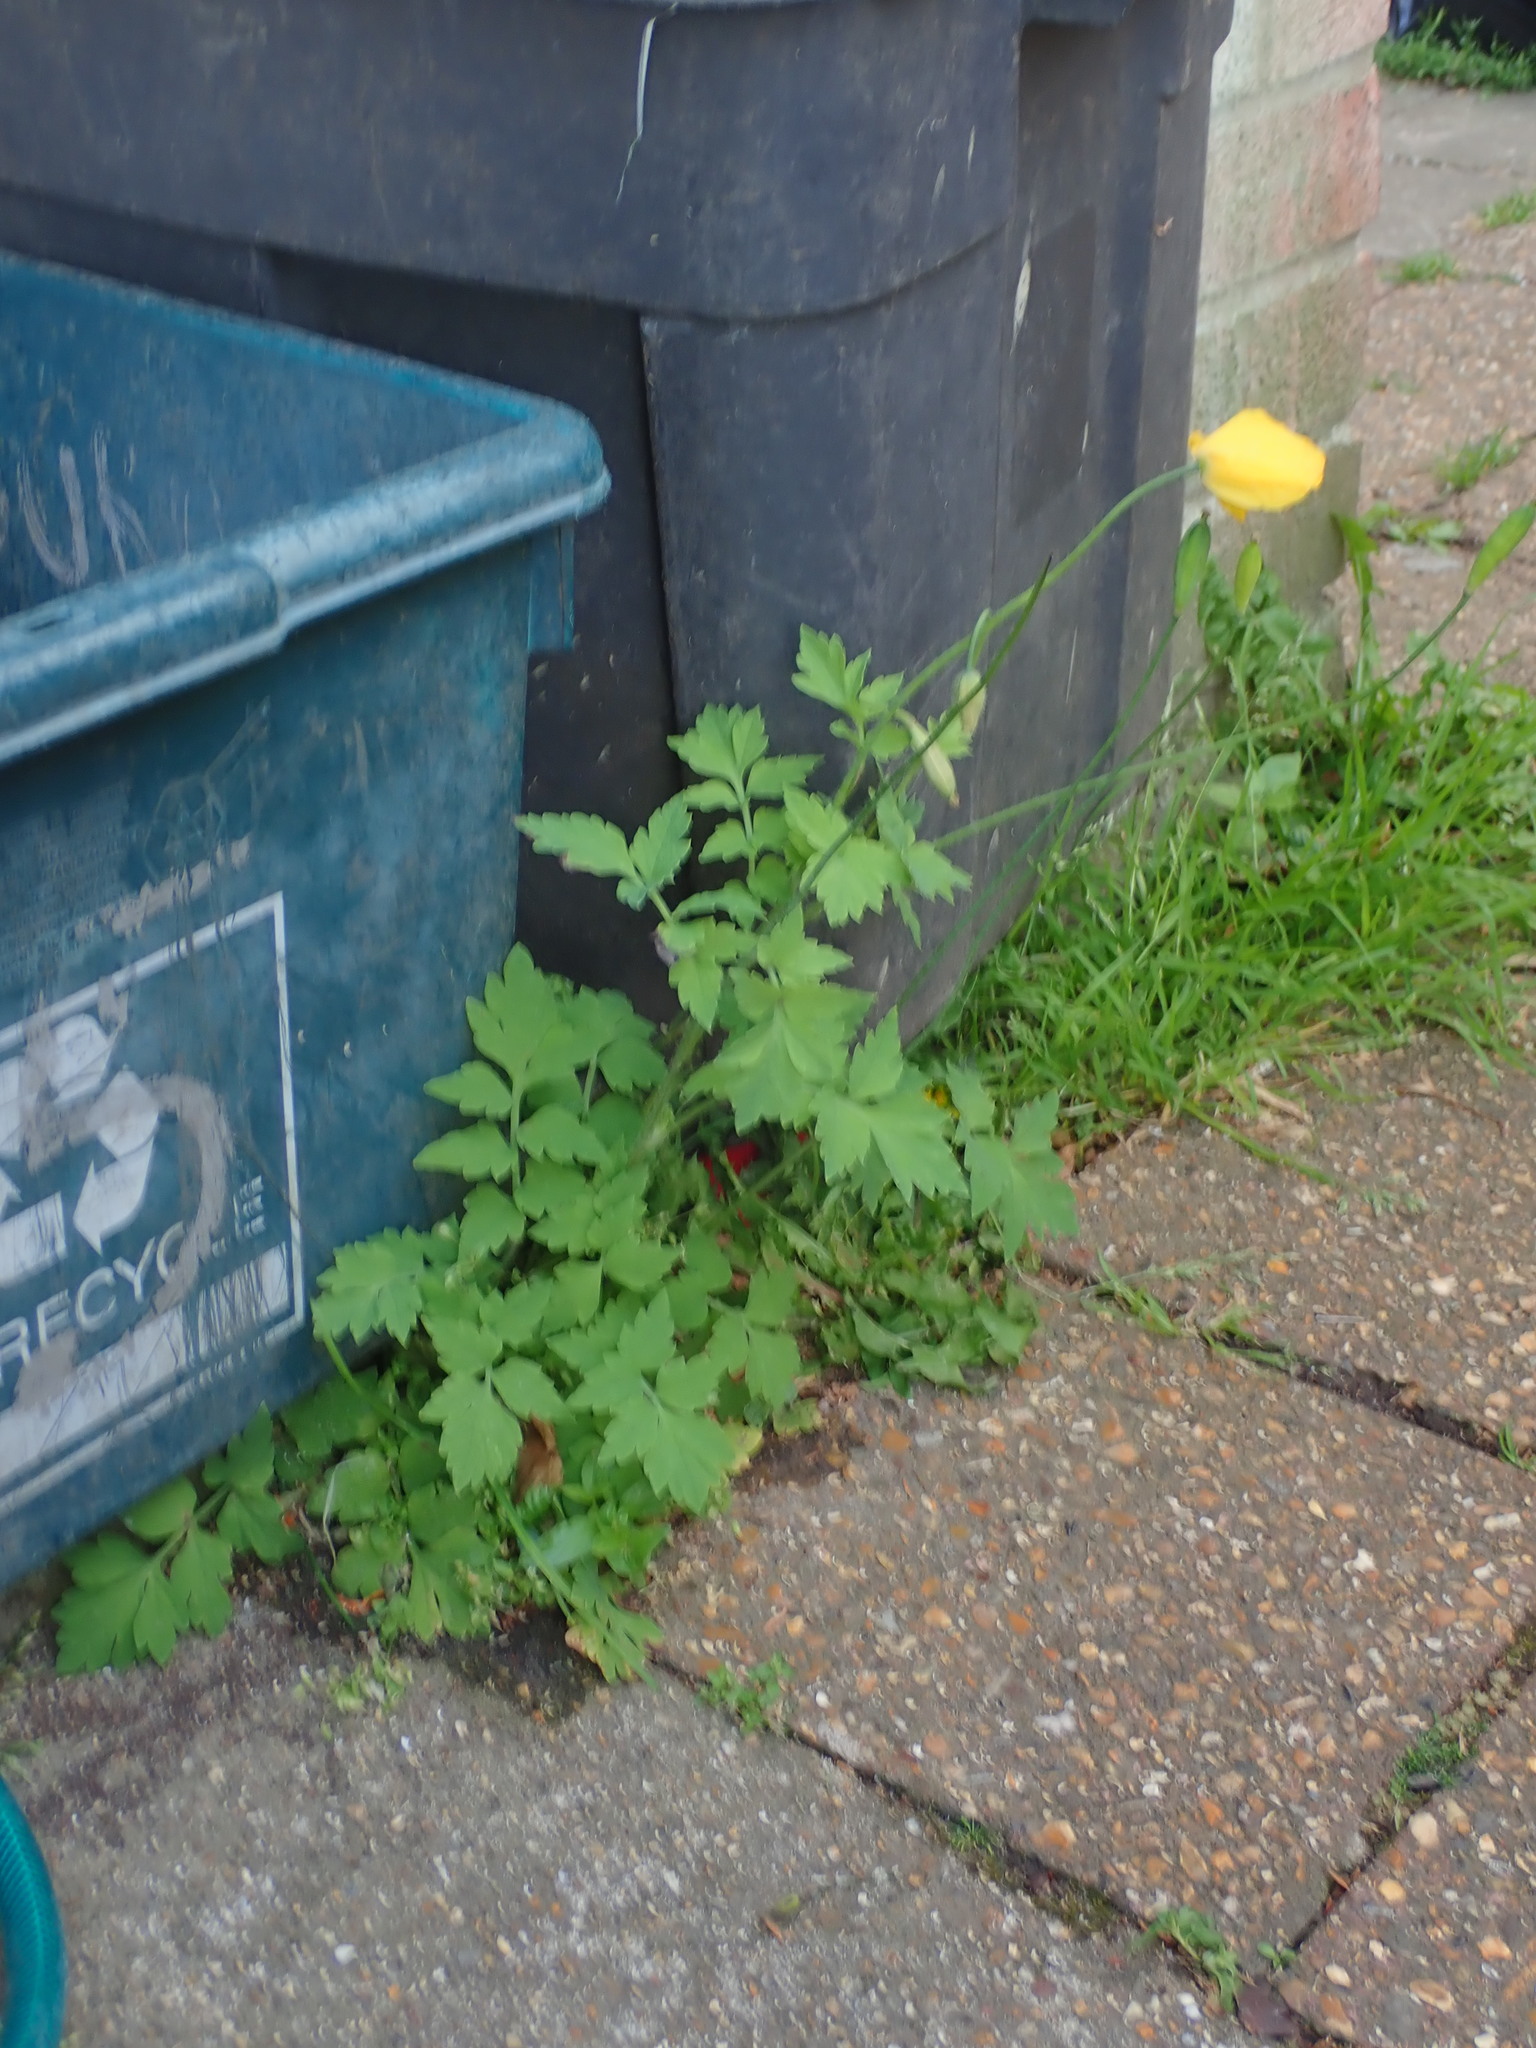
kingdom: Plantae
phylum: Tracheophyta
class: Magnoliopsida
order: Ranunculales
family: Papaveraceae
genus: Papaver
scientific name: Papaver cambricum
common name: Poppy
